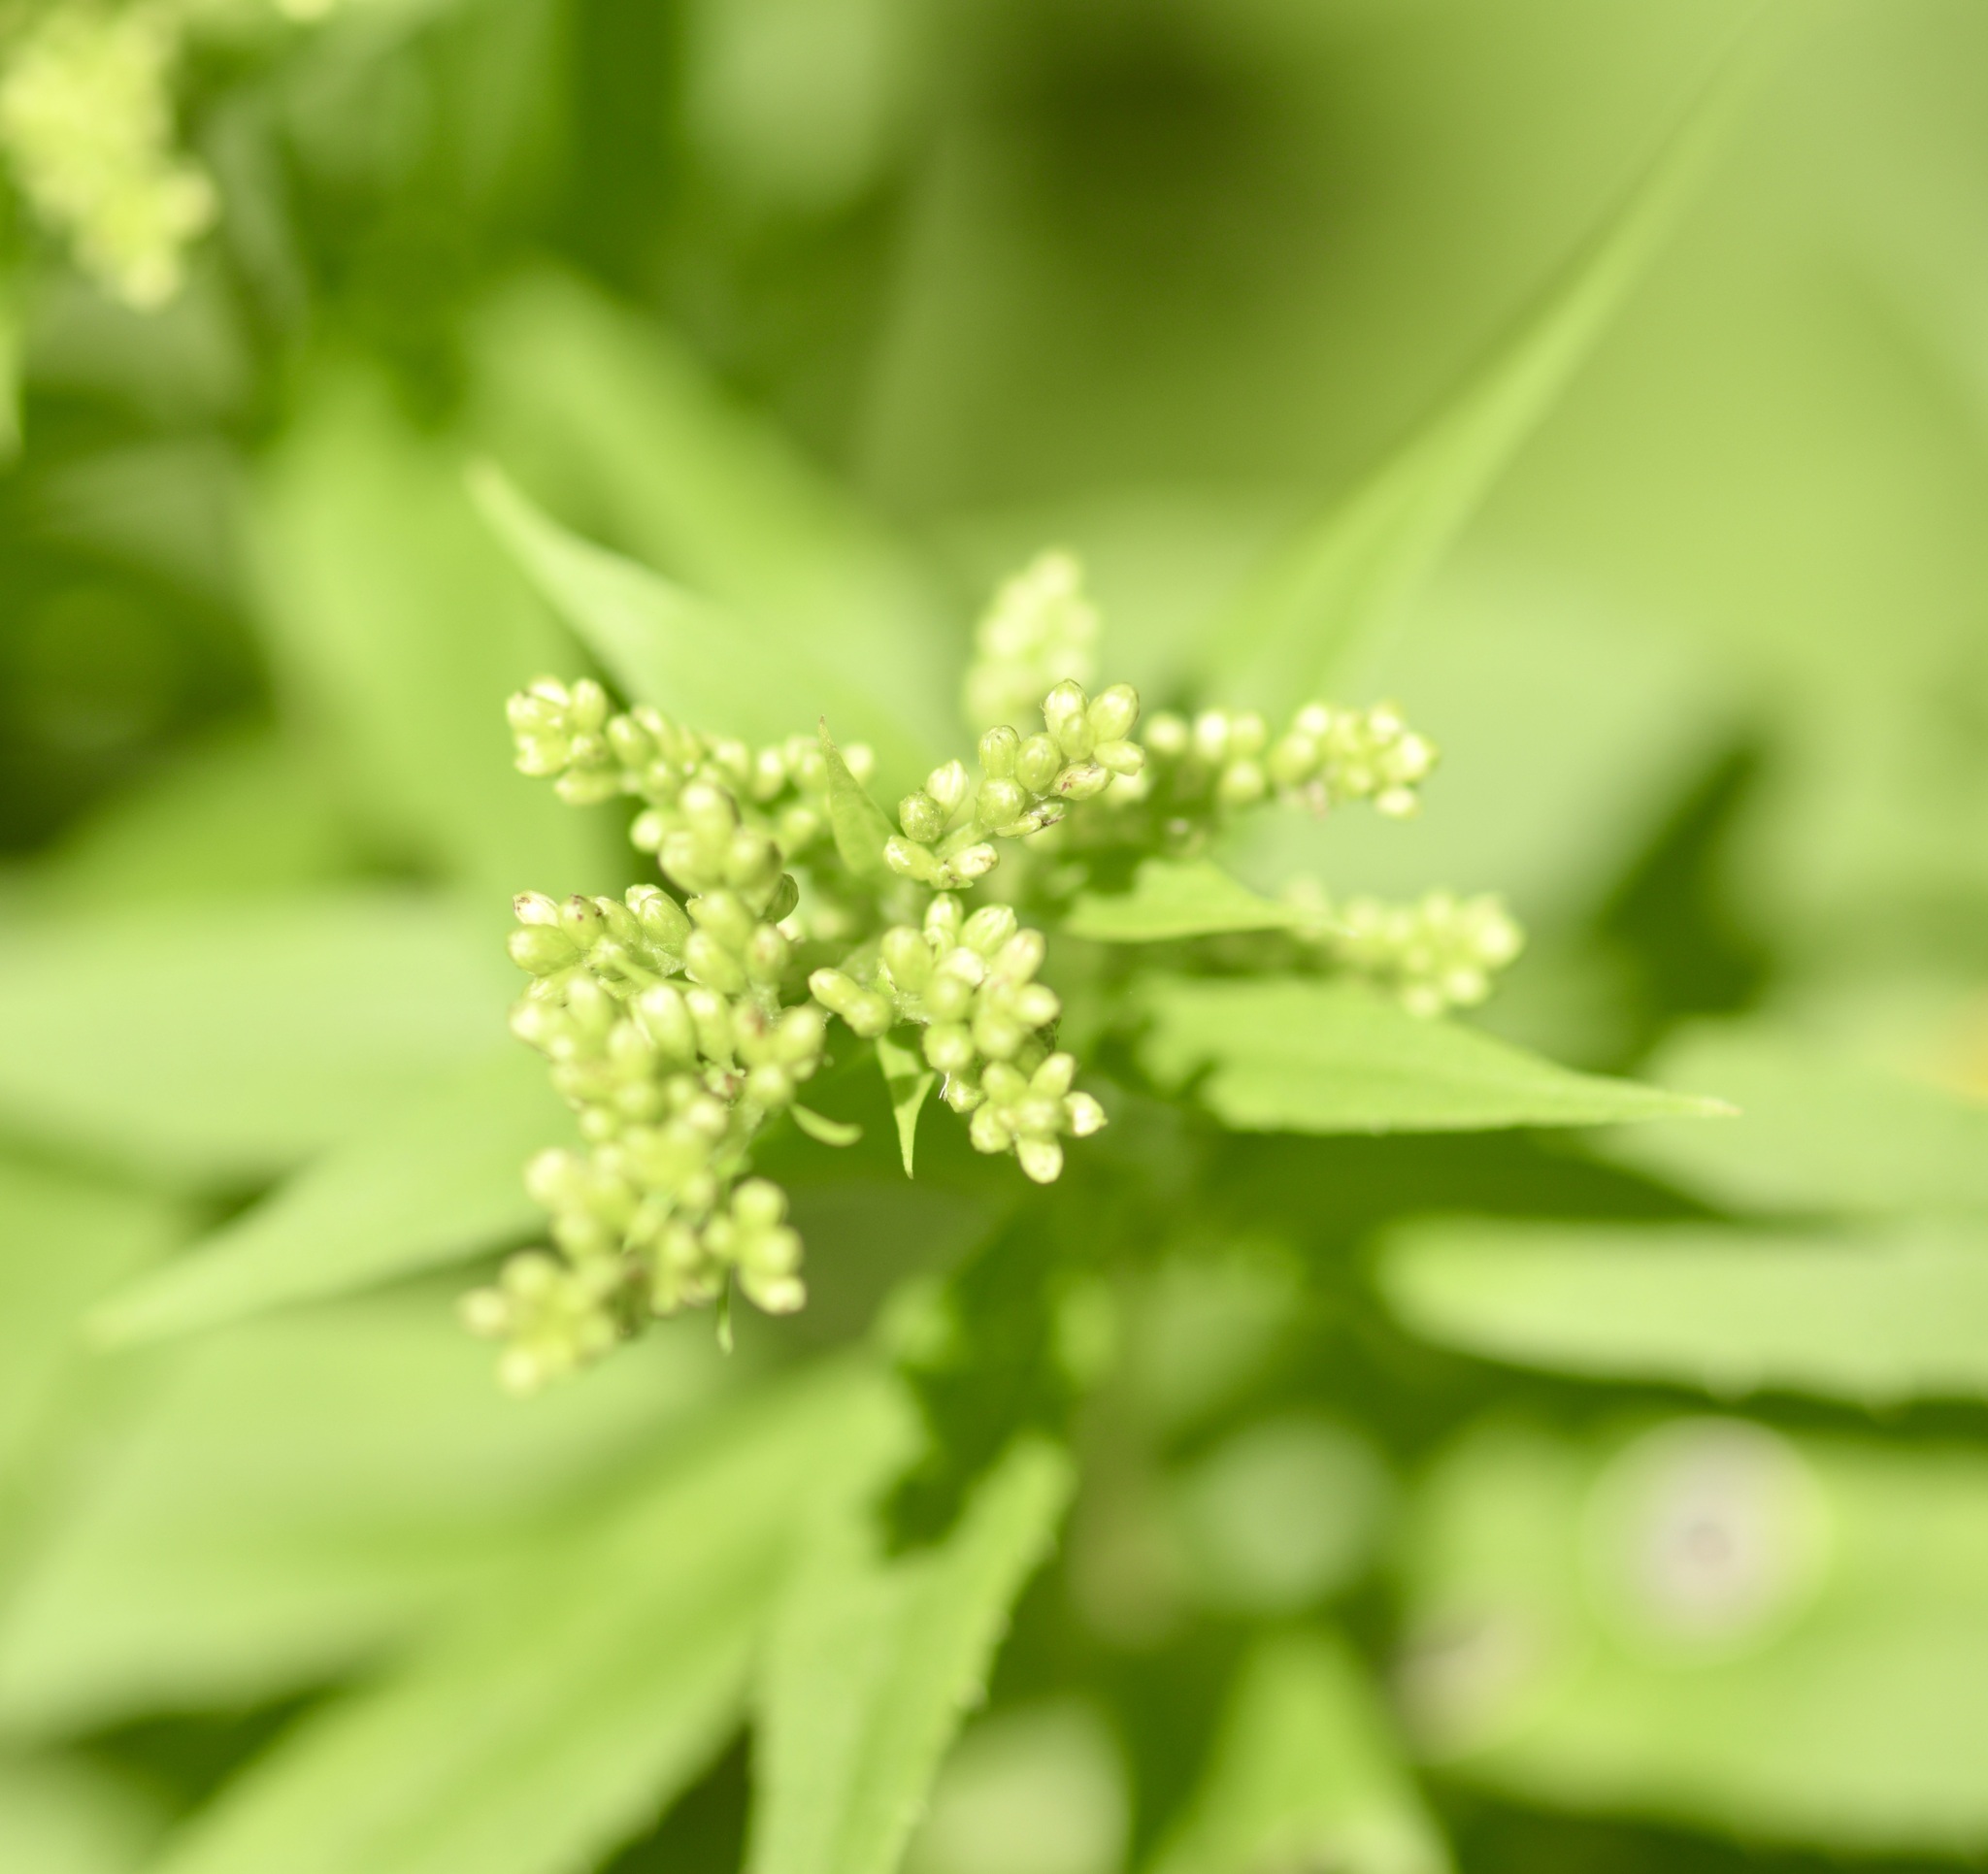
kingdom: Animalia
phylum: Arthropoda
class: Insecta
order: Diptera
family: Cecidomyiidae
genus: Asteromyia
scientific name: Asteromyia carbonifera
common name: Carbonifera goldenrod gall midge
